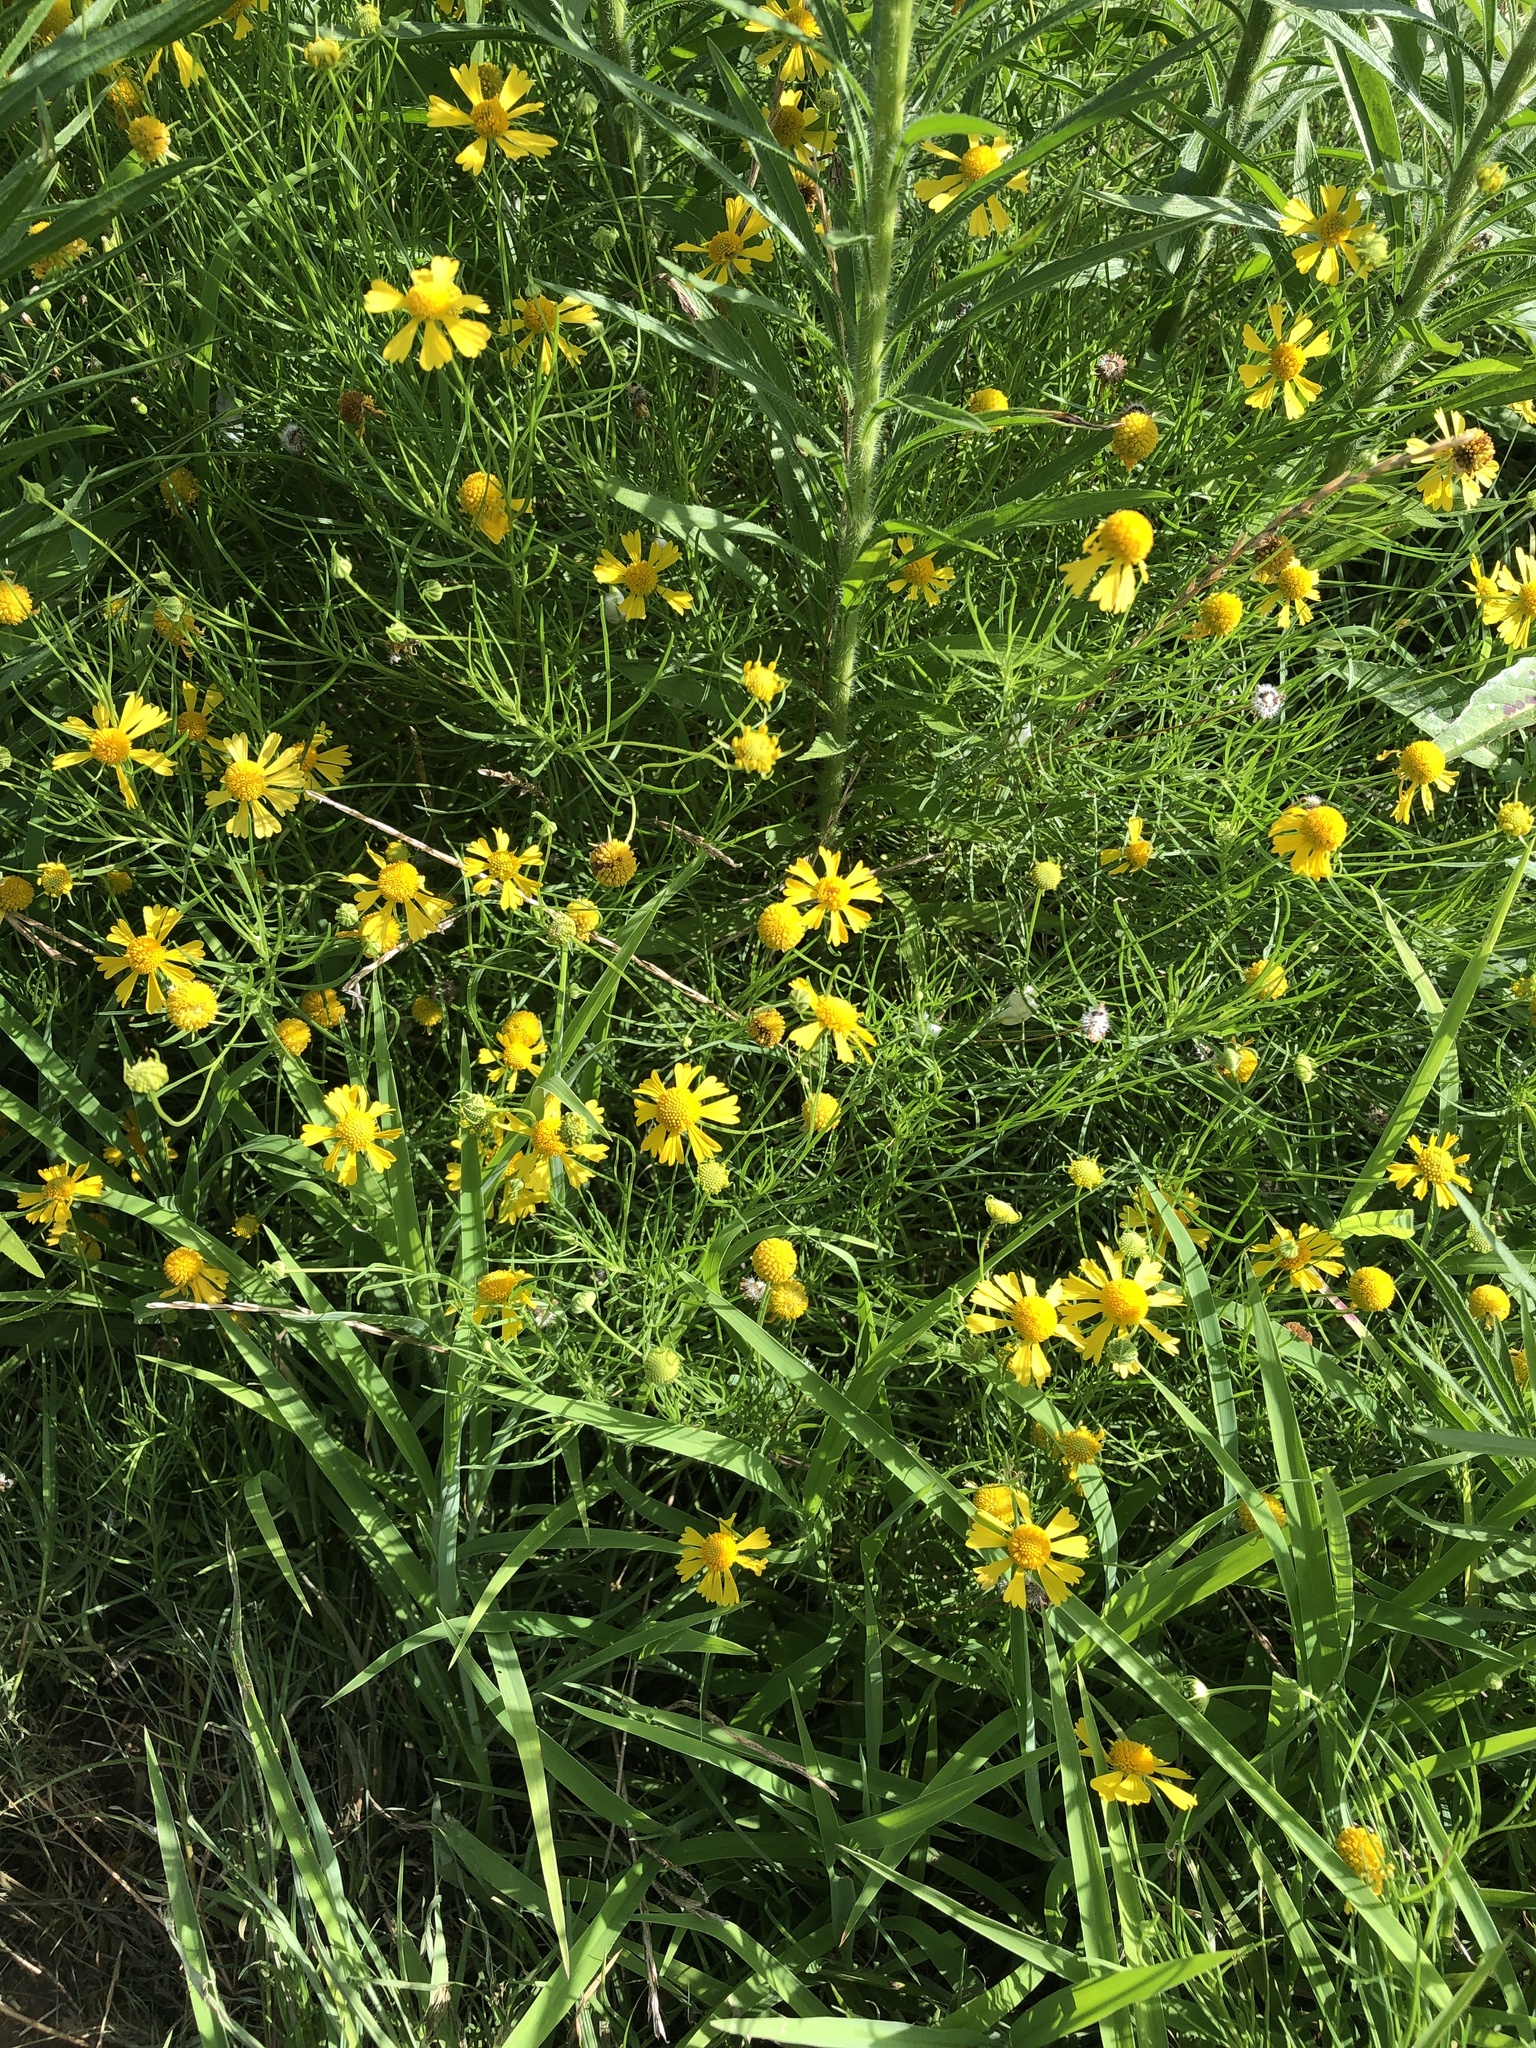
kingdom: Plantae
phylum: Tracheophyta
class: Magnoliopsida
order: Asterales
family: Asteraceae
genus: Helenium
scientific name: Helenium amarum
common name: Bitter sneezeweed
